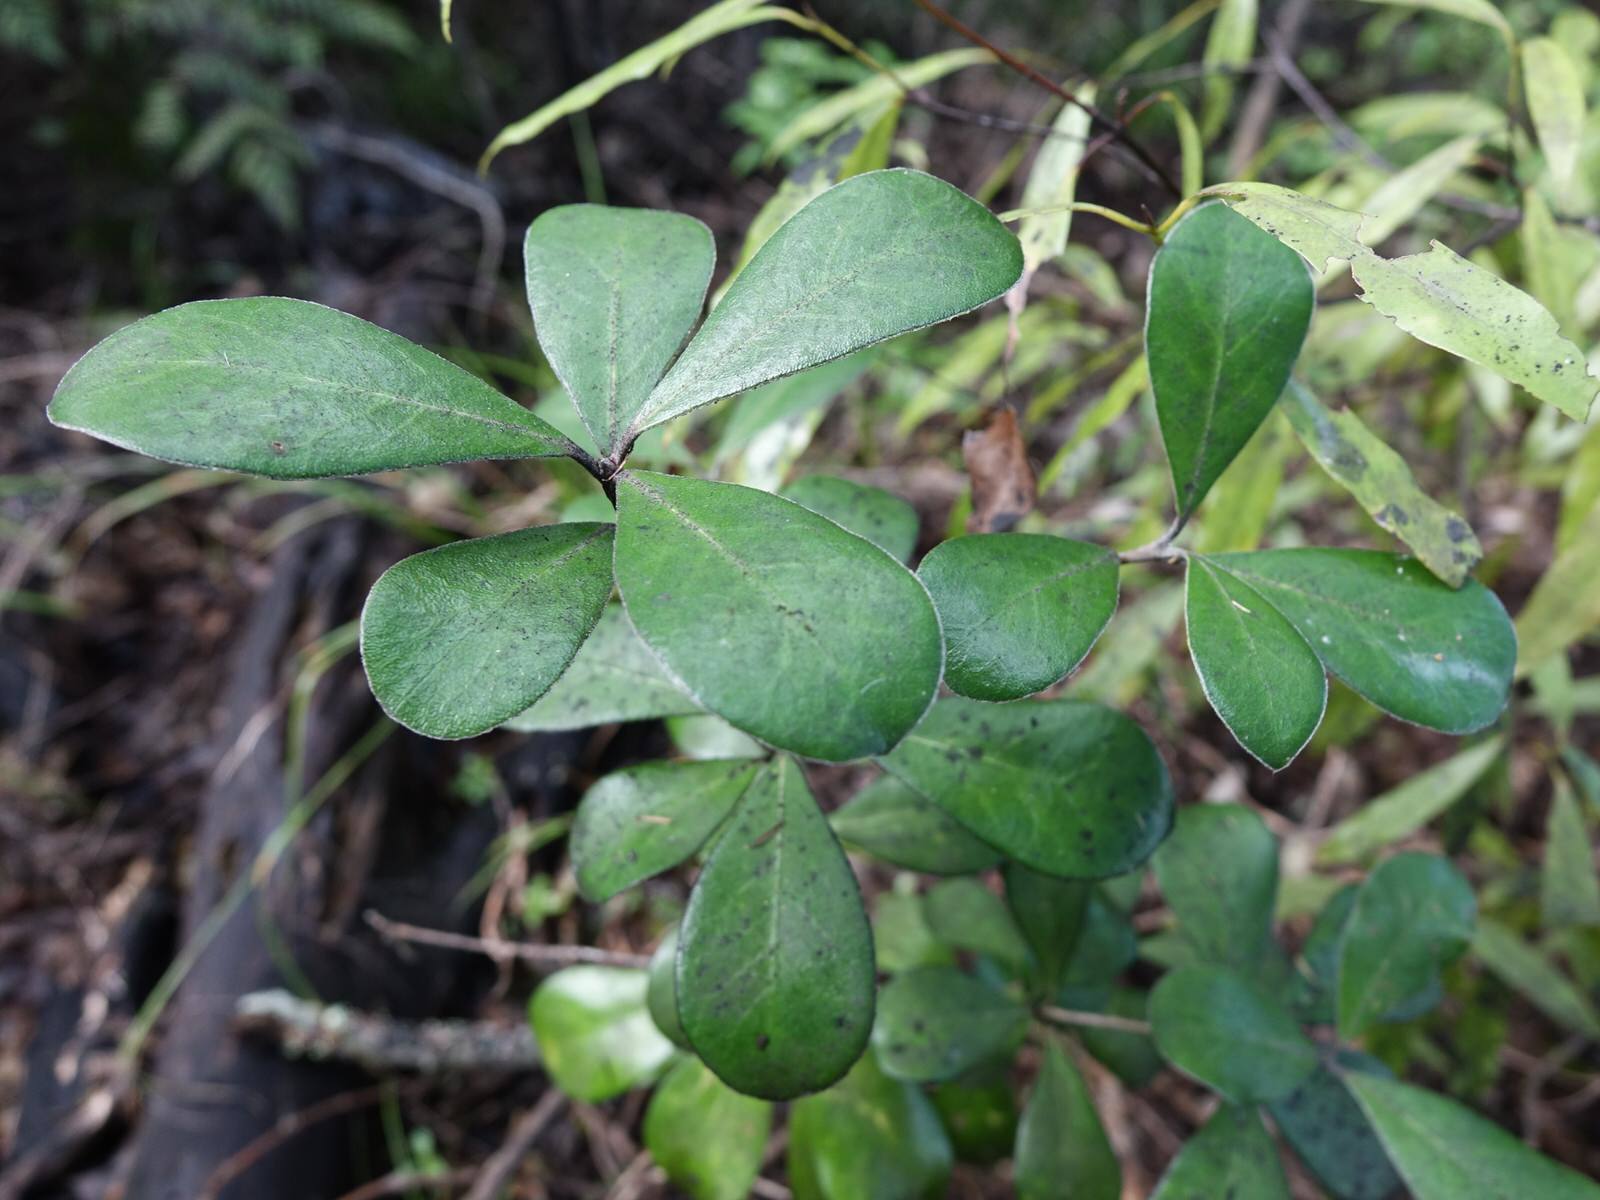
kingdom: Plantae
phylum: Tracheophyta
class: Magnoliopsida
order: Apiales
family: Pittosporaceae
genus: Pittosporum
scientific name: Pittosporum crassifolium
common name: Karo
